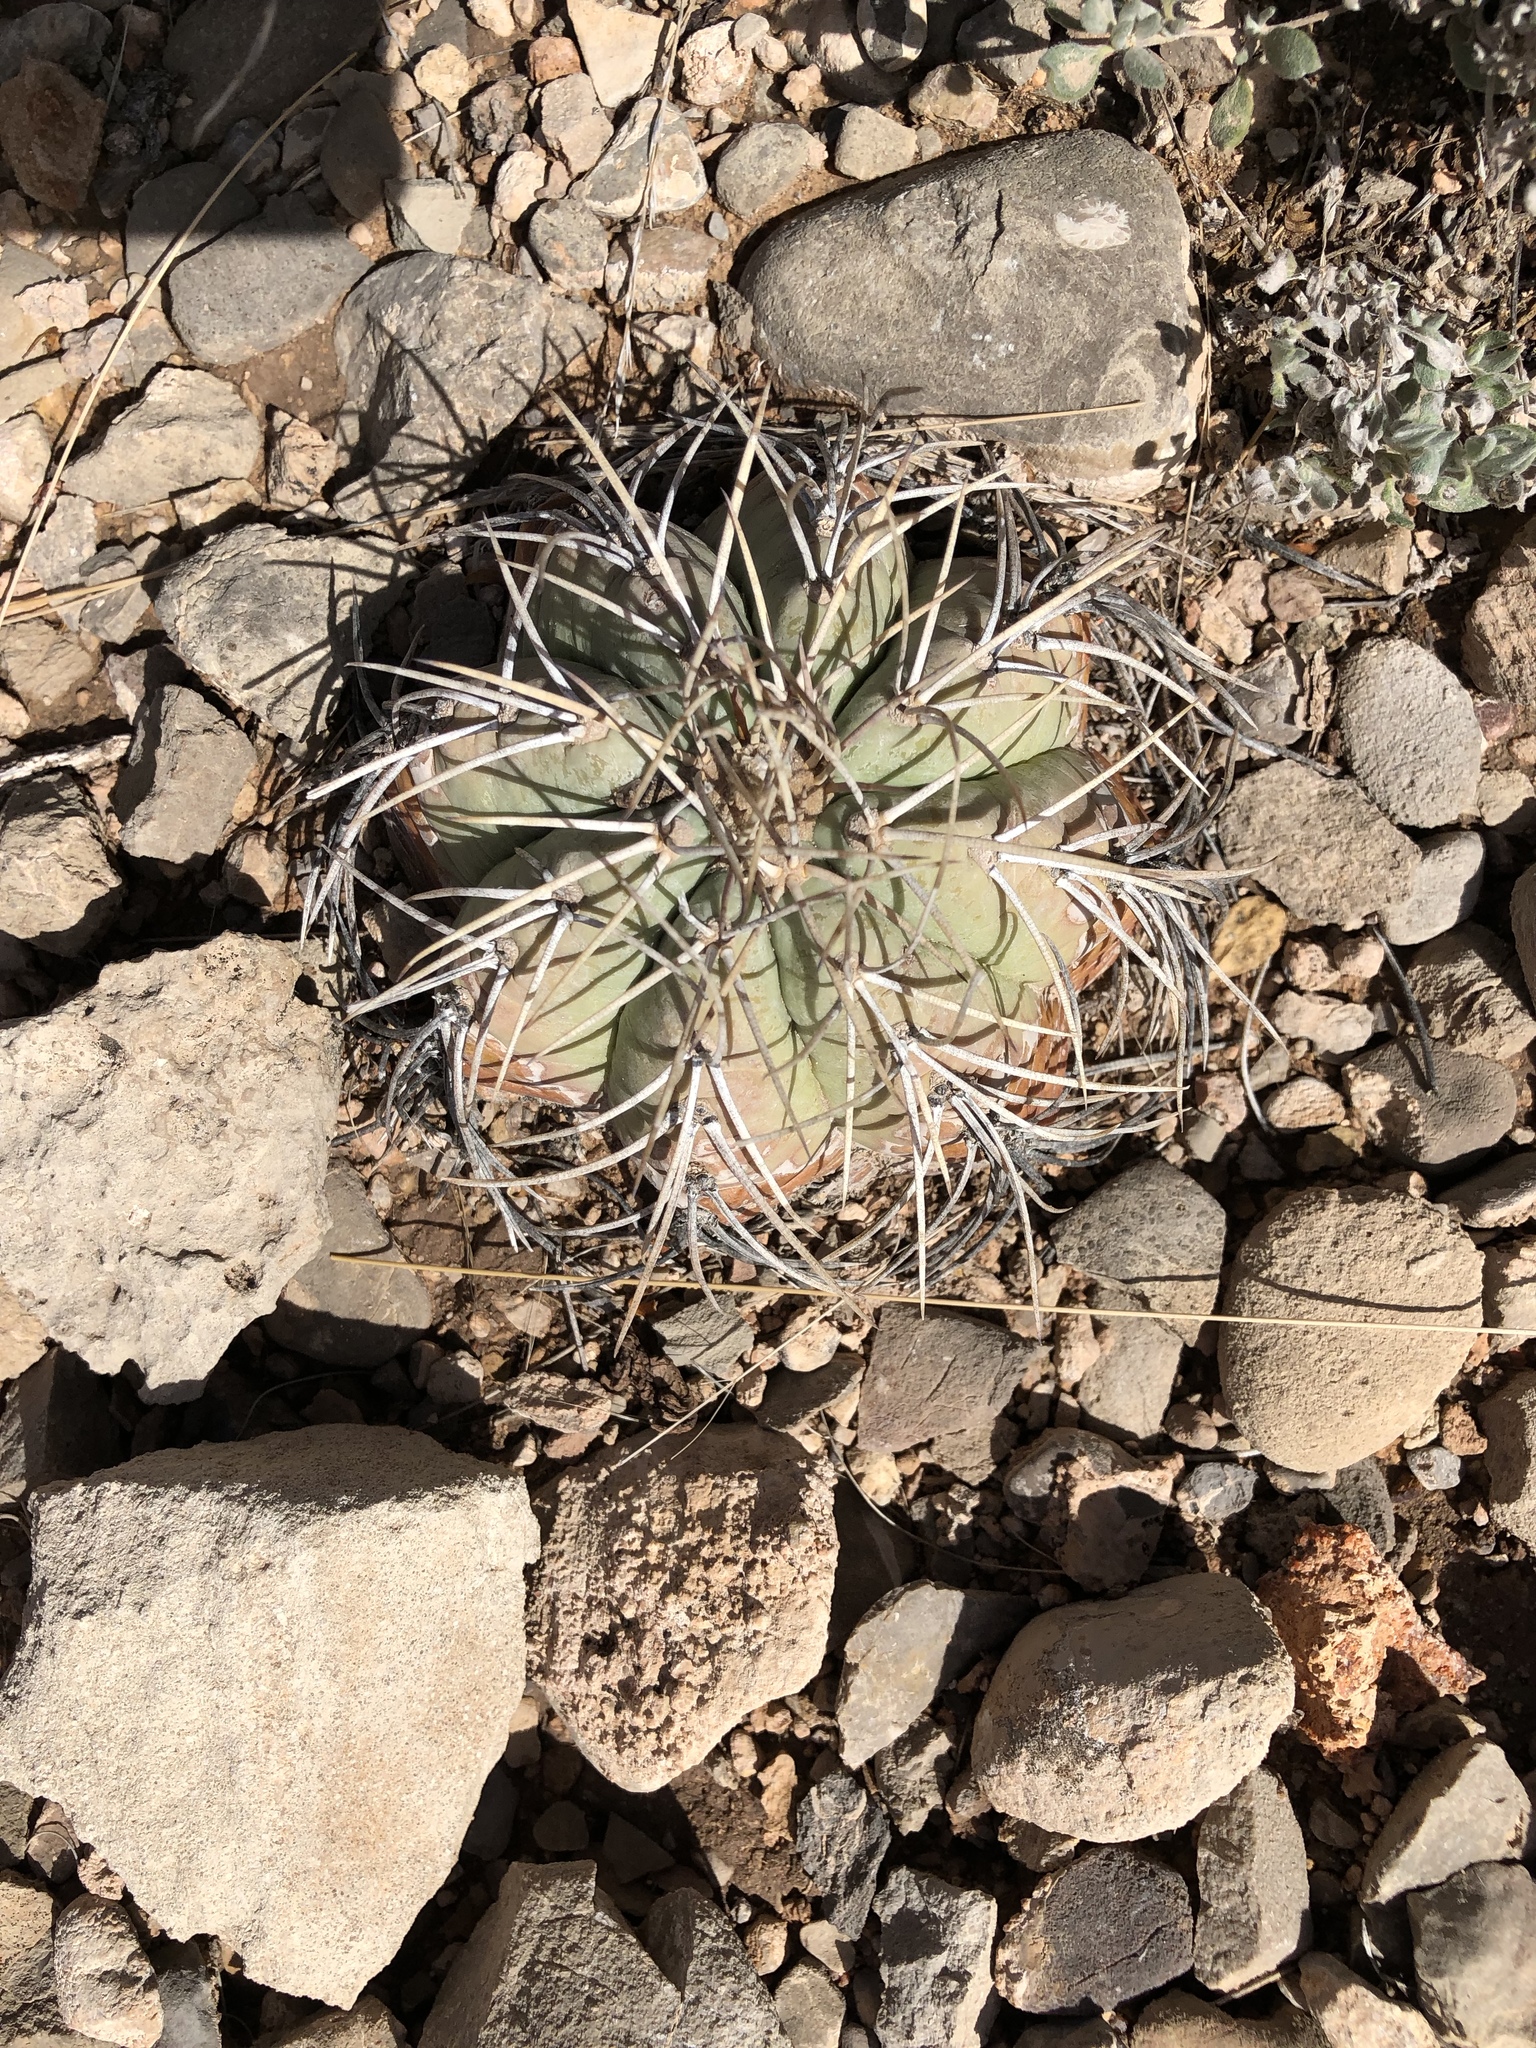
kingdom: Plantae
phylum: Tracheophyta
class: Magnoliopsida
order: Caryophyllales
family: Cactaceae
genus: Echinocactus
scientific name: Echinocactus horizonthalonius
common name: Devilshead
